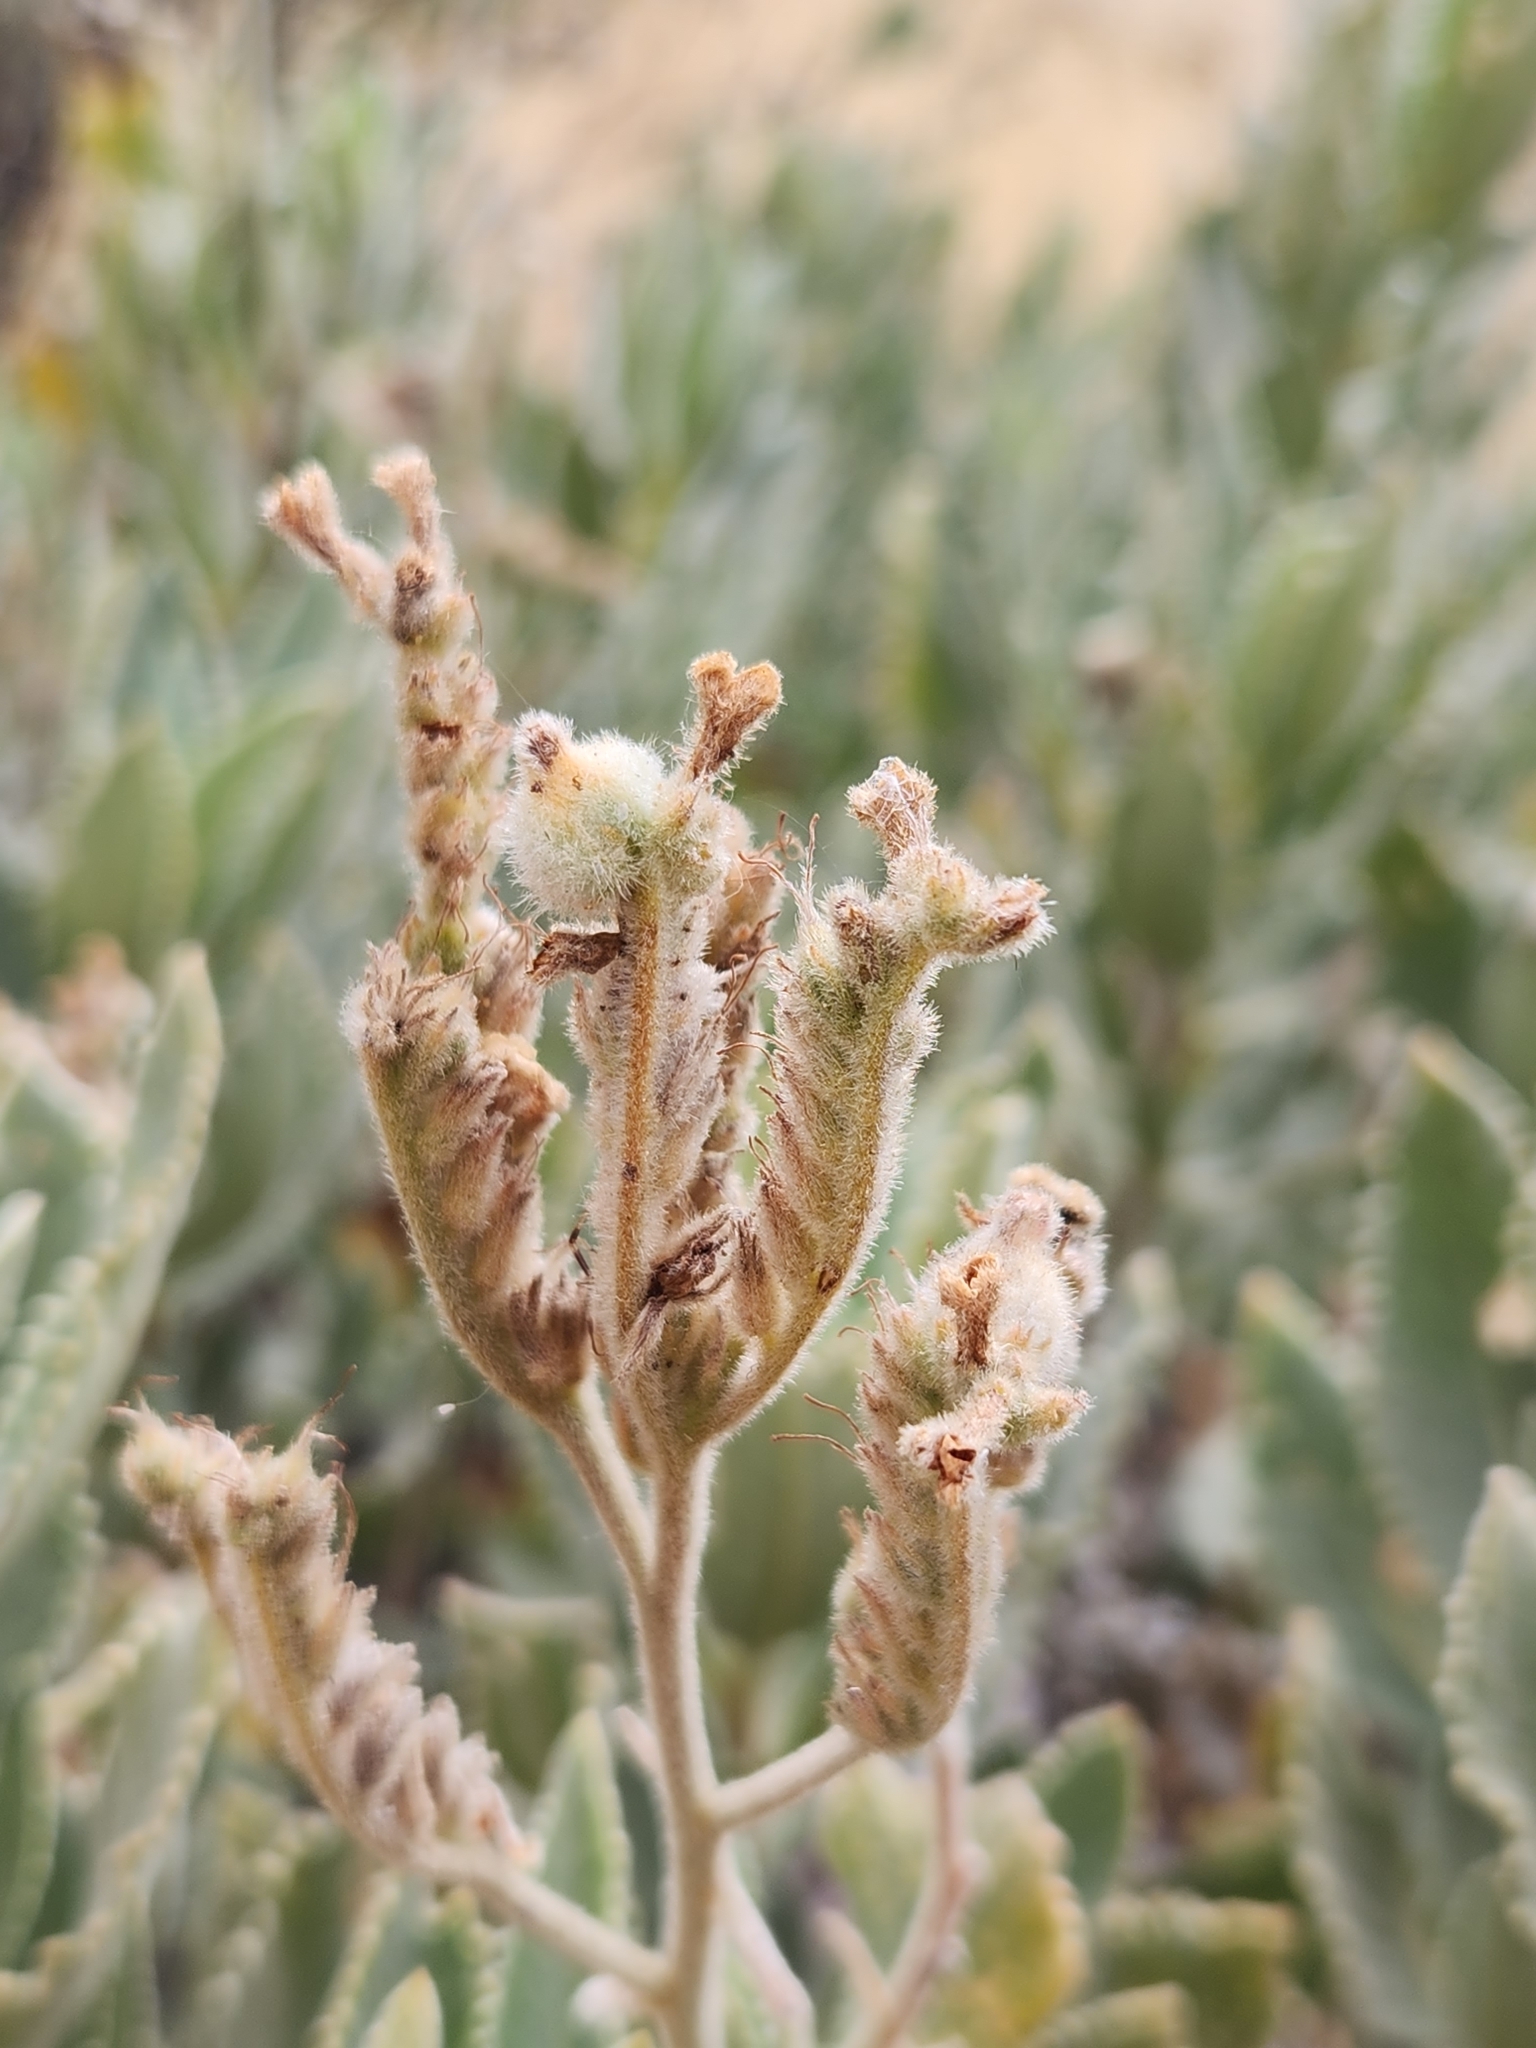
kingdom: Plantae
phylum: Tracheophyta
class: Magnoliopsida
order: Boraginales
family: Namaceae
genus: Eriodictyon
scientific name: Eriodictyon crassifolium
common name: Thick-leaf yerba-santa
